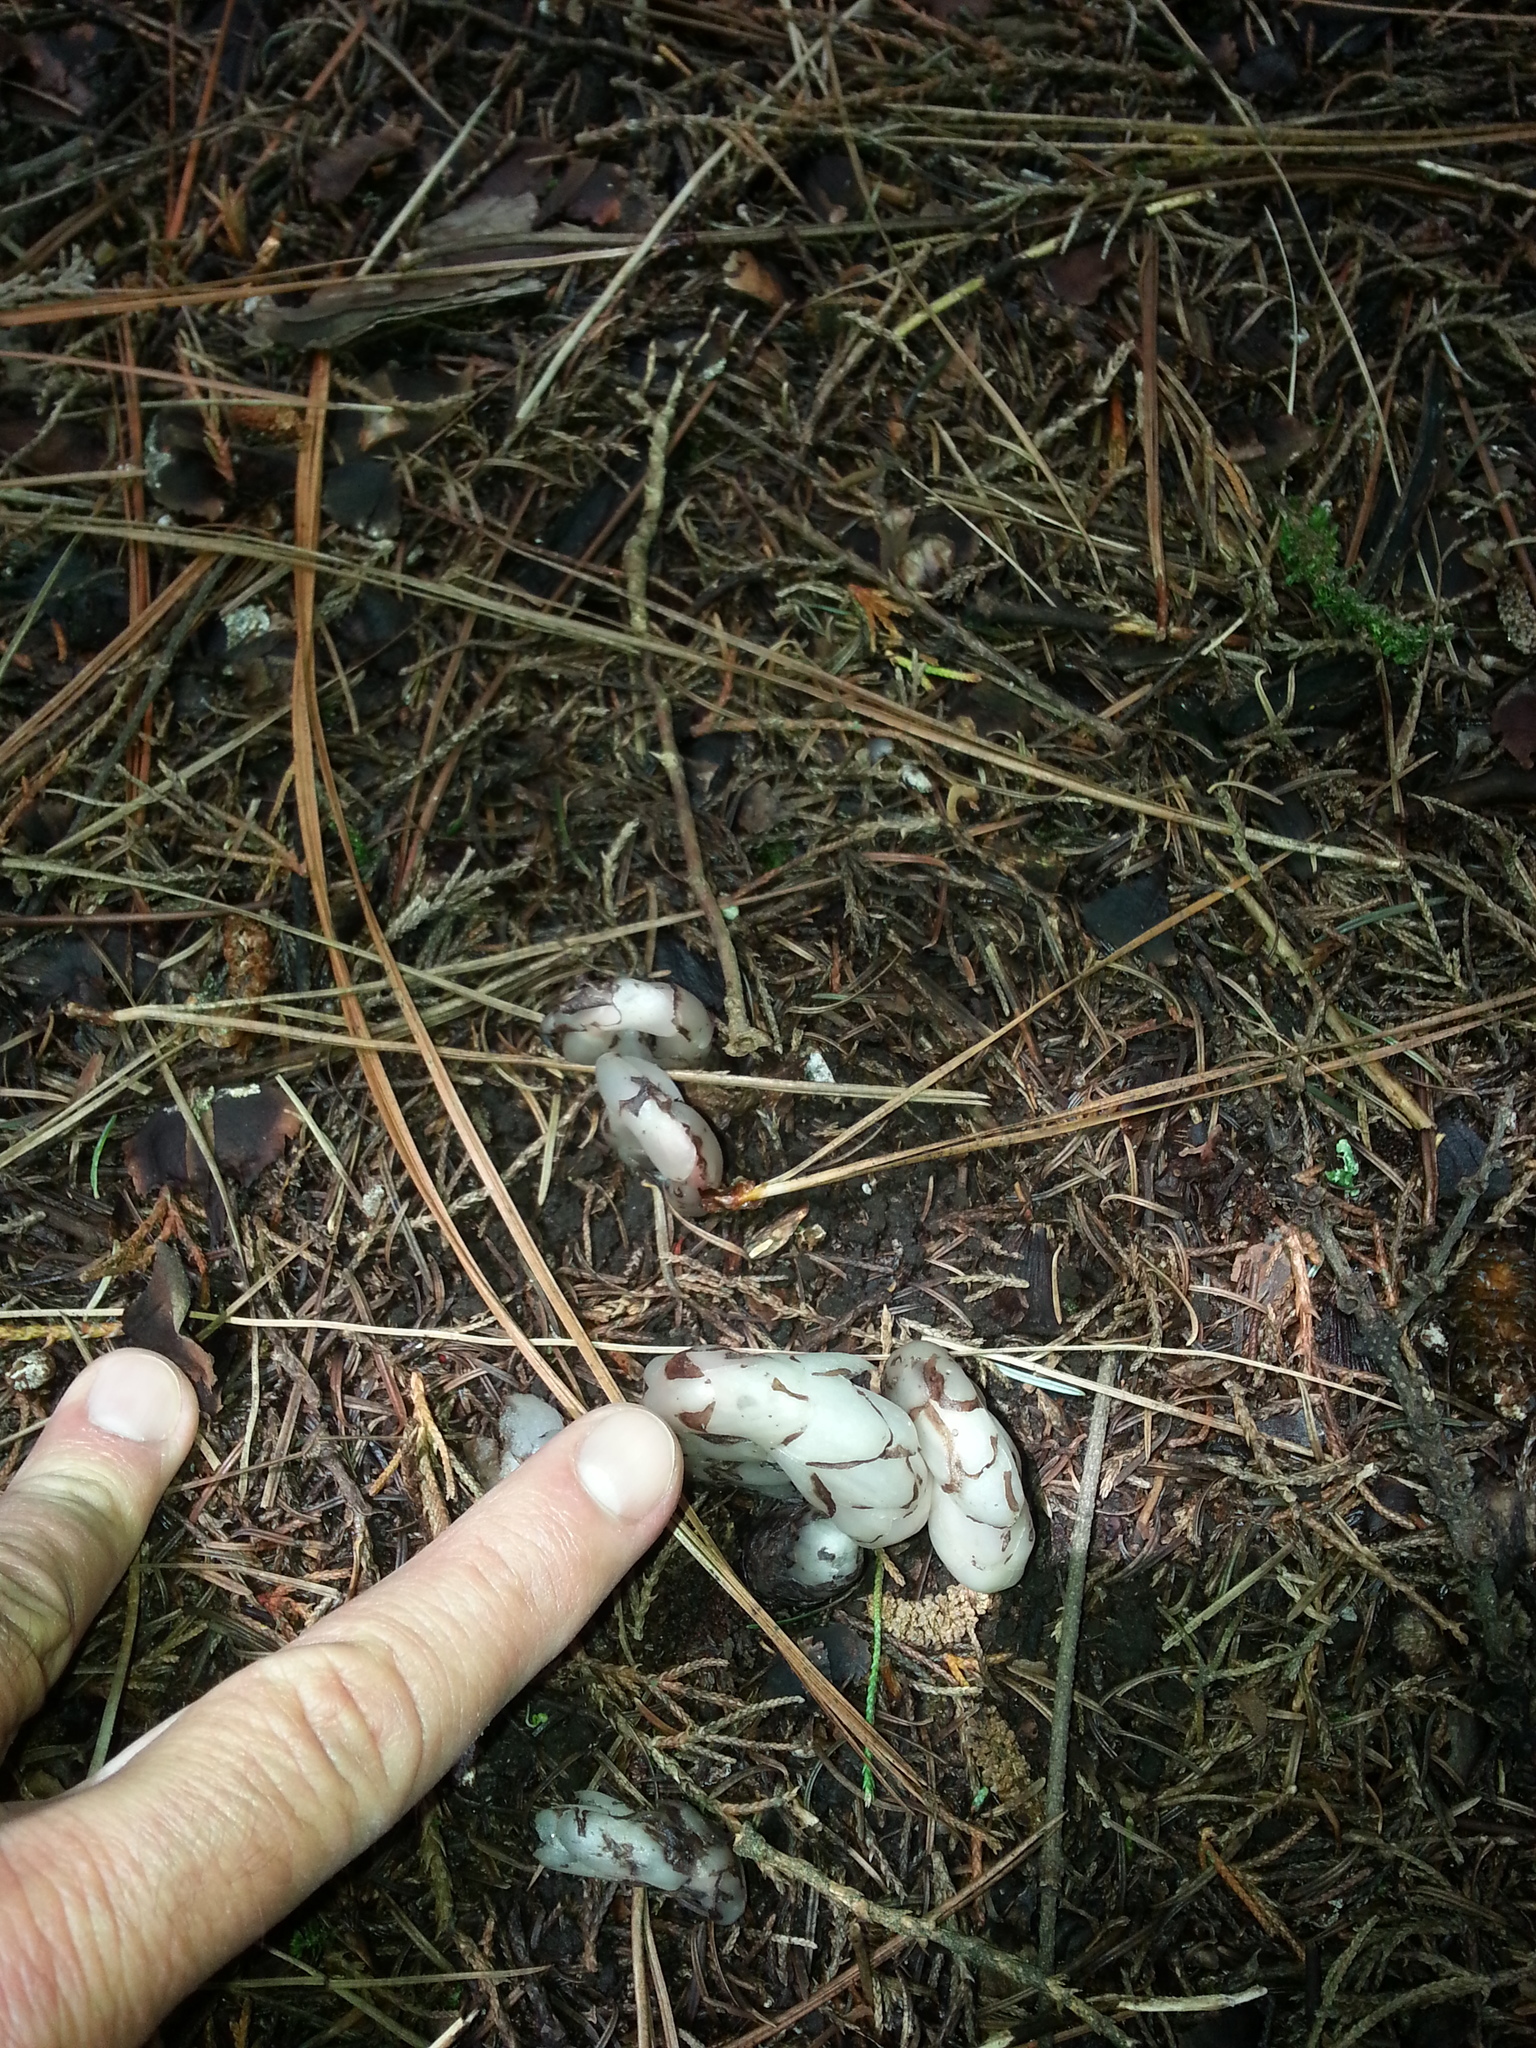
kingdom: Plantae
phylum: Tracheophyta
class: Magnoliopsida
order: Ericales
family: Ericaceae
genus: Monotropa
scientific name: Monotropa uniflora
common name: Convulsion root
